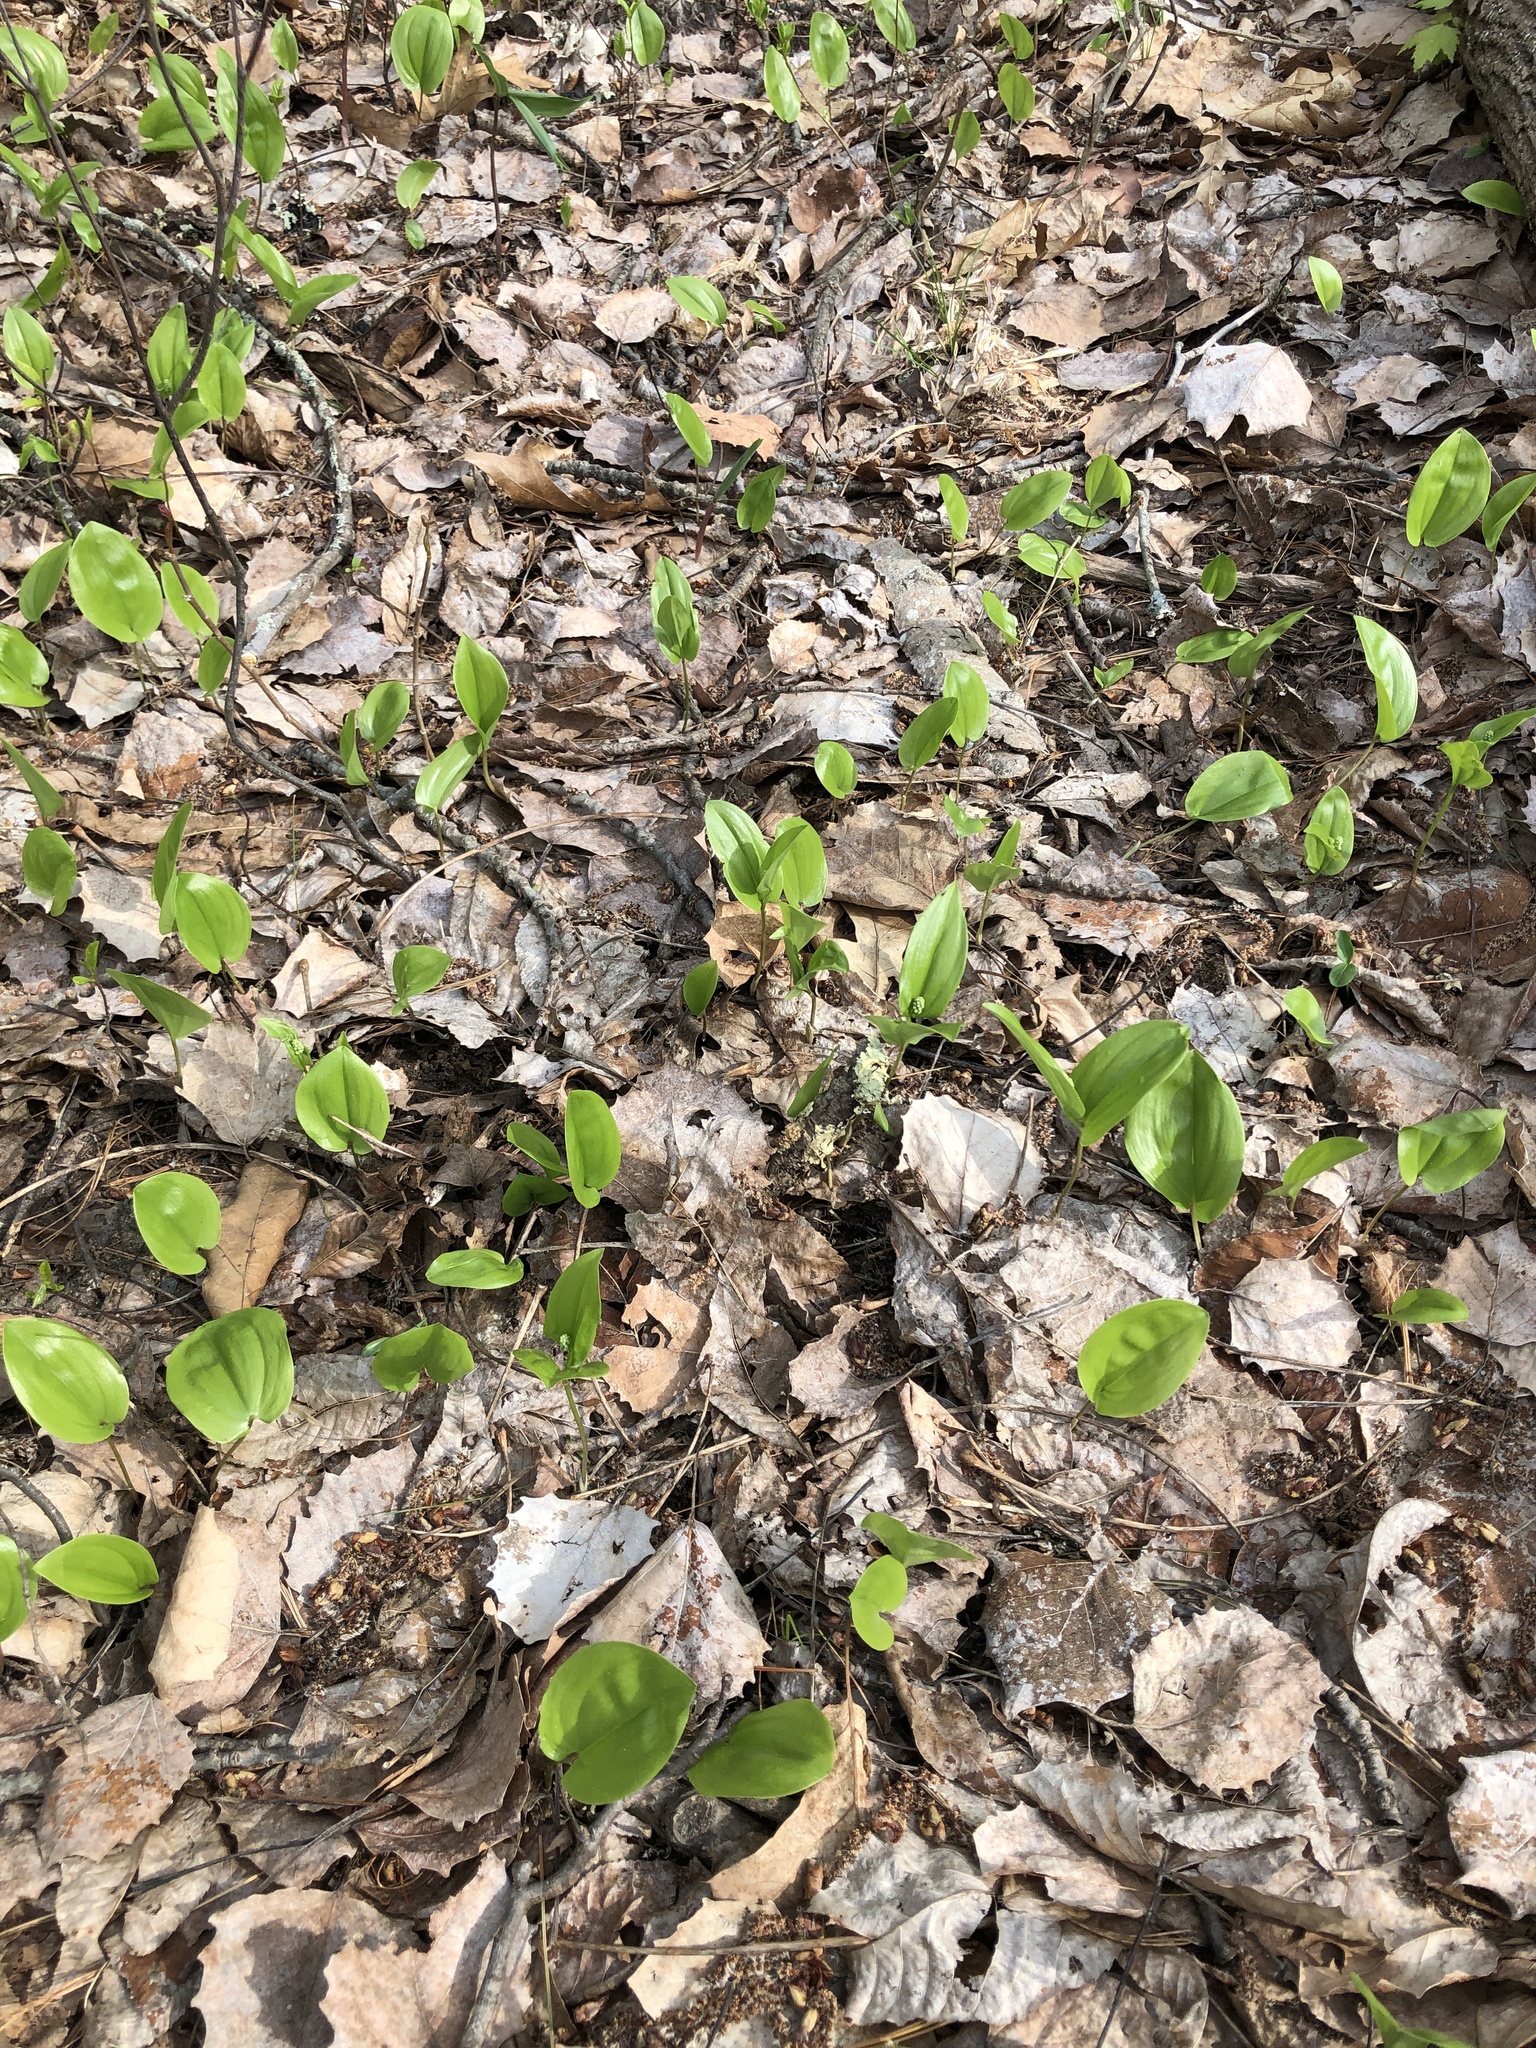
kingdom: Plantae
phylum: Tracheophyta
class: Liliopsida
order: Asparagales
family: Asparagaceae
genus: Maianthemum
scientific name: Maianthemum canadense
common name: False lily-of-the-valley
